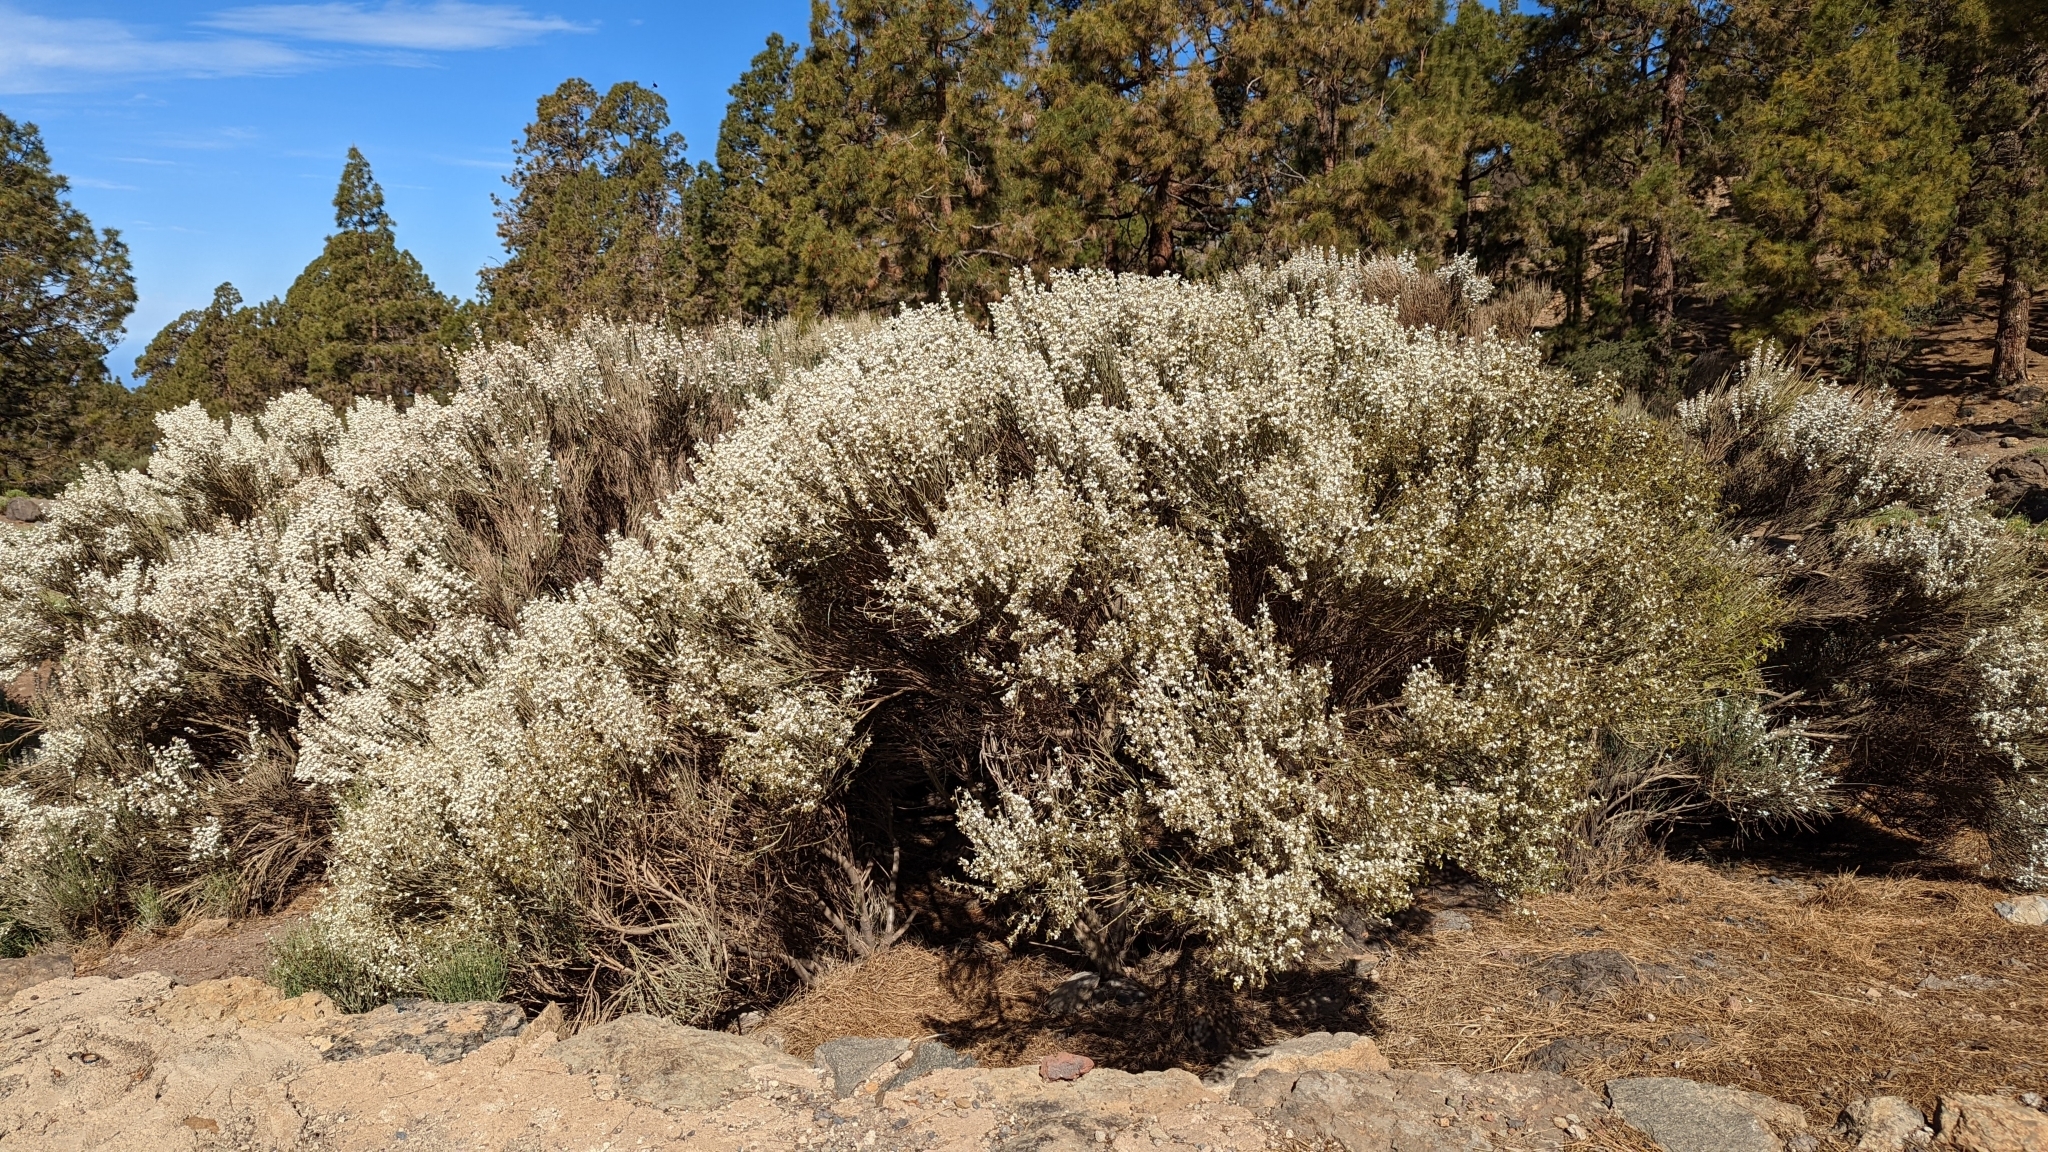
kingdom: Plantae
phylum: Tracheophyta
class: Magnoliopsida
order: Fabales
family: Fabaceae
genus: Cytisus
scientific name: Cytisus supranubius
